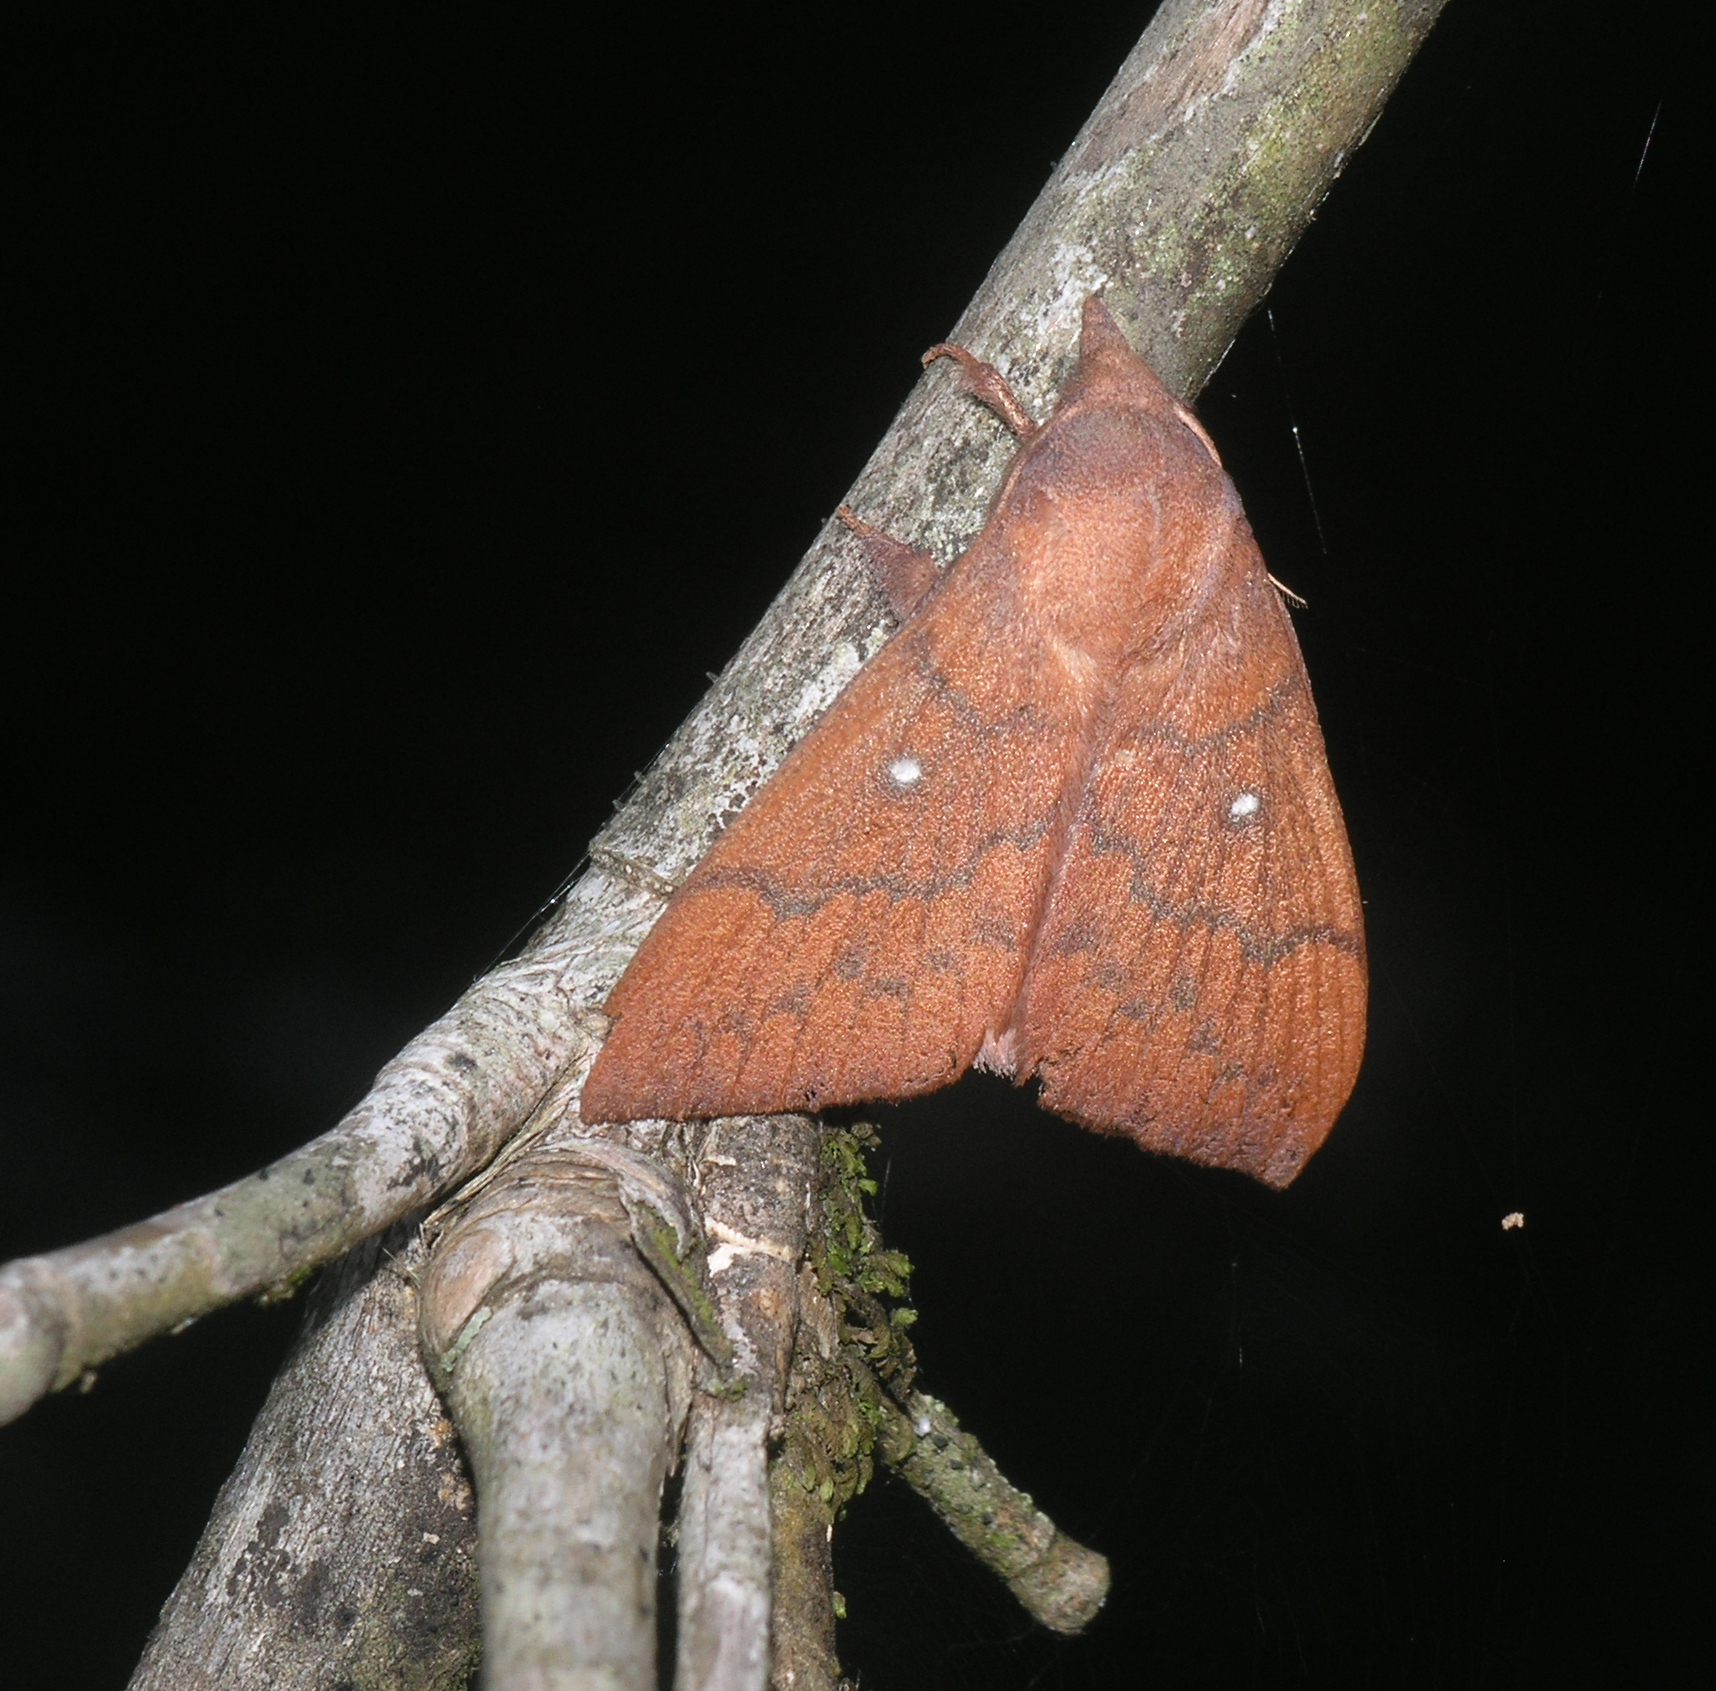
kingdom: Animalia
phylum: Arthropoda
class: Insecta
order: Lepidoptera
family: Lasiocampidae
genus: Odonestis
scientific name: Odonestis vita
